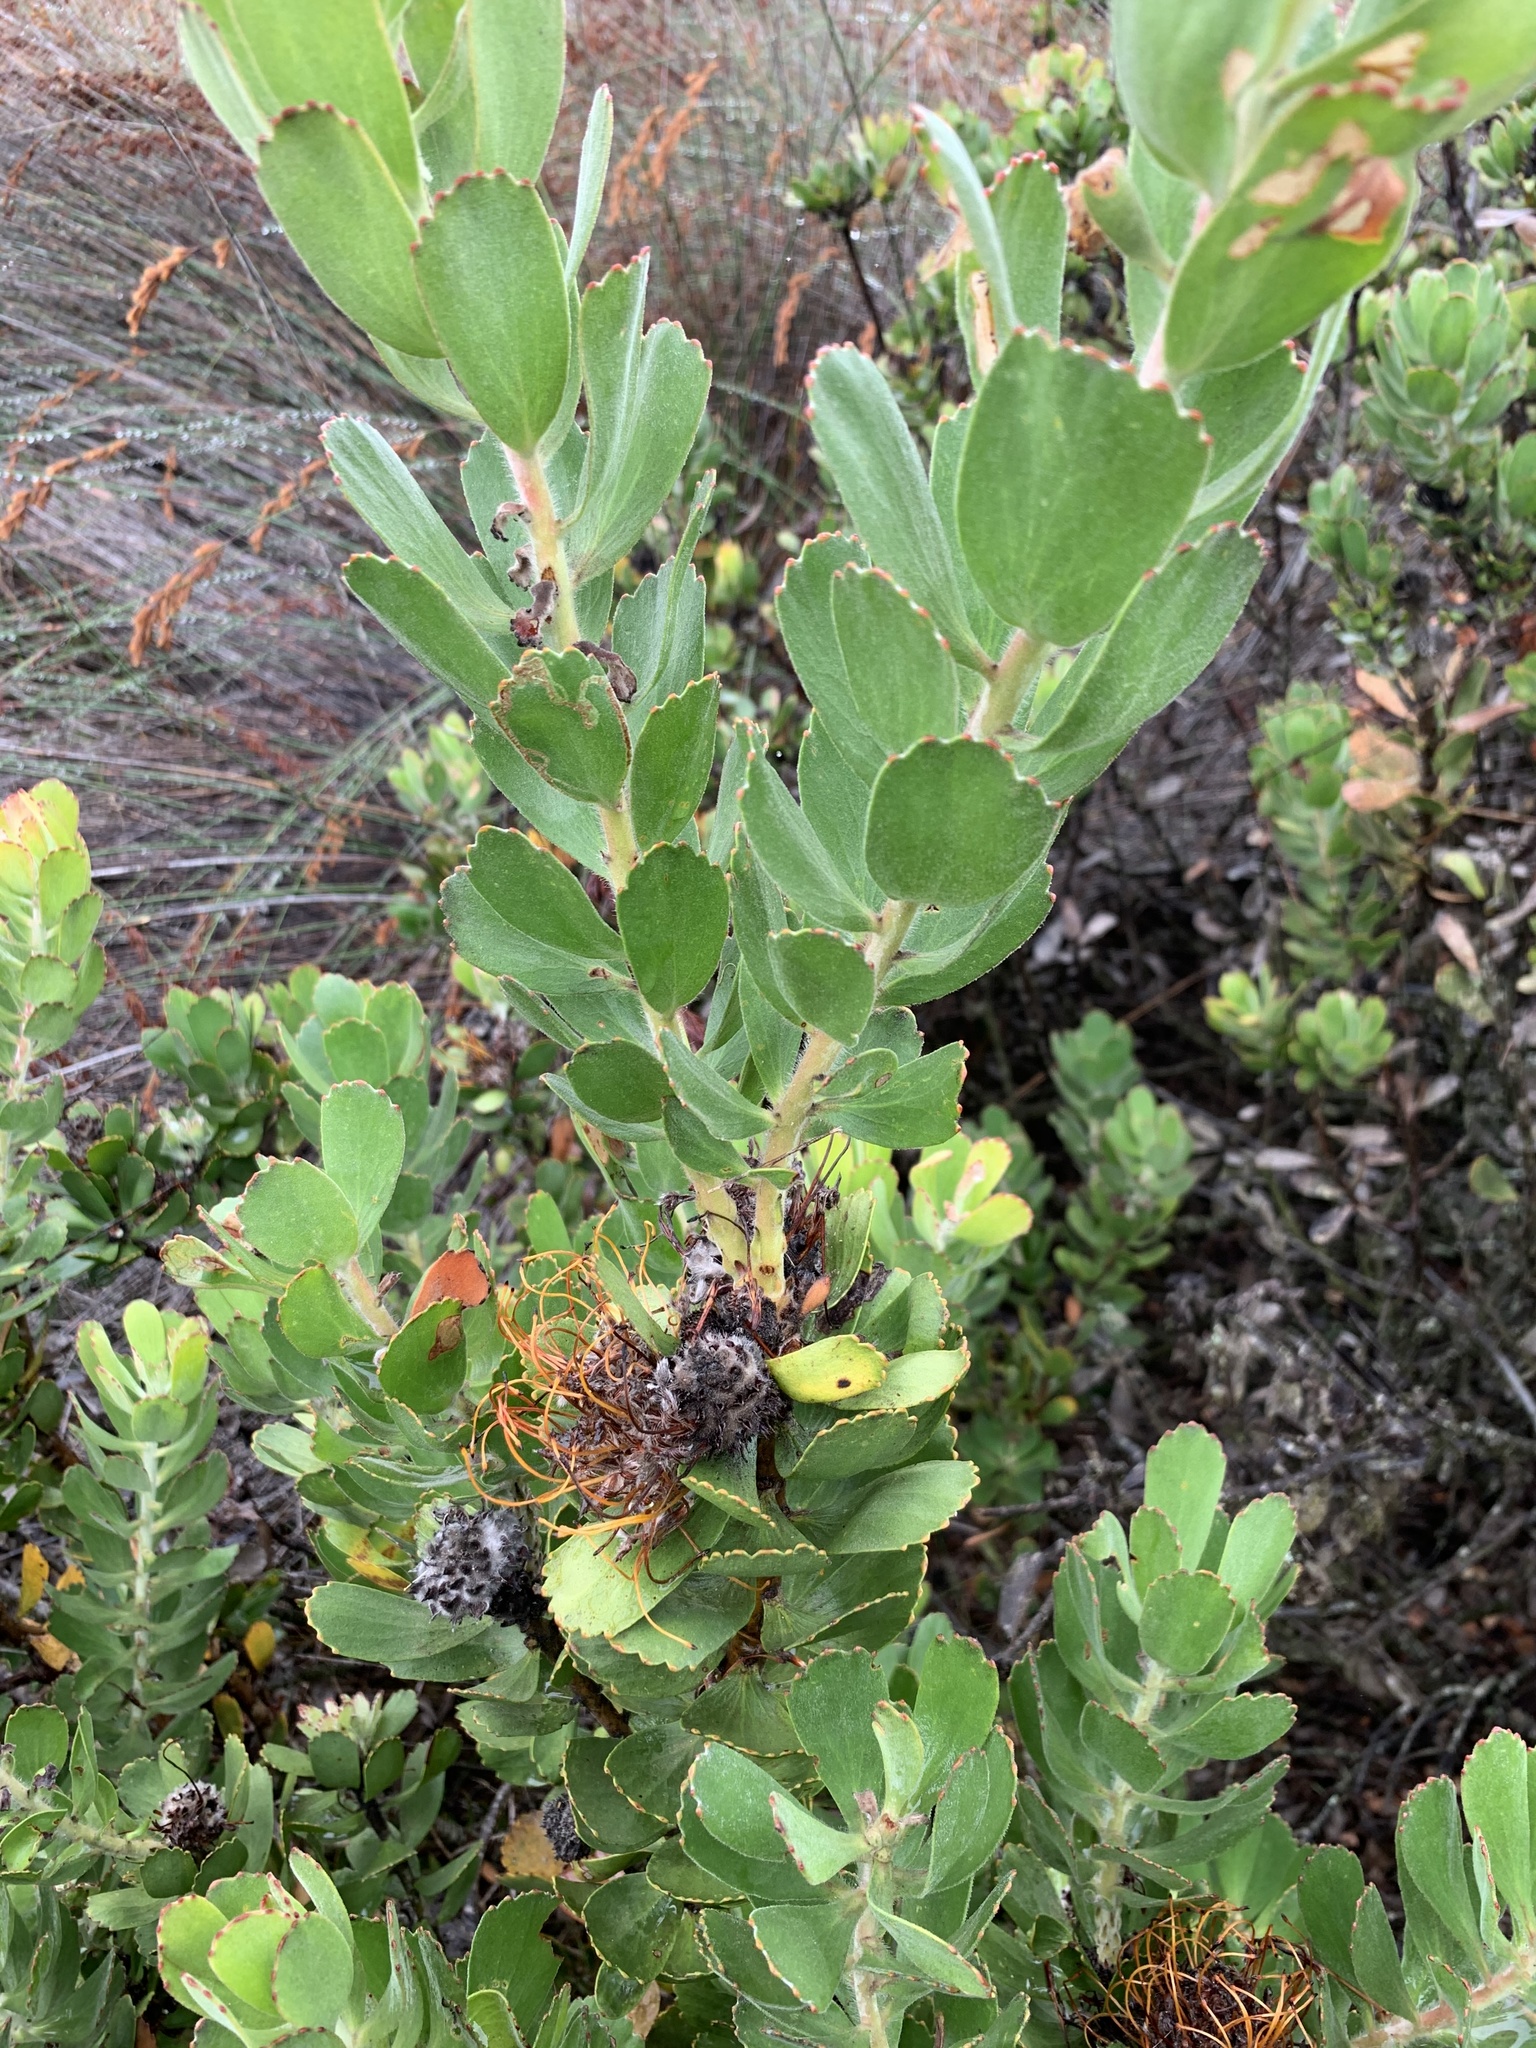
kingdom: Plantae
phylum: Tracheophyta
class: Magnoliopsida
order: Proteales
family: Proteaceae
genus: Leucospermum
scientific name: Leucospermum praecox
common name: Mossel bay pincushion
